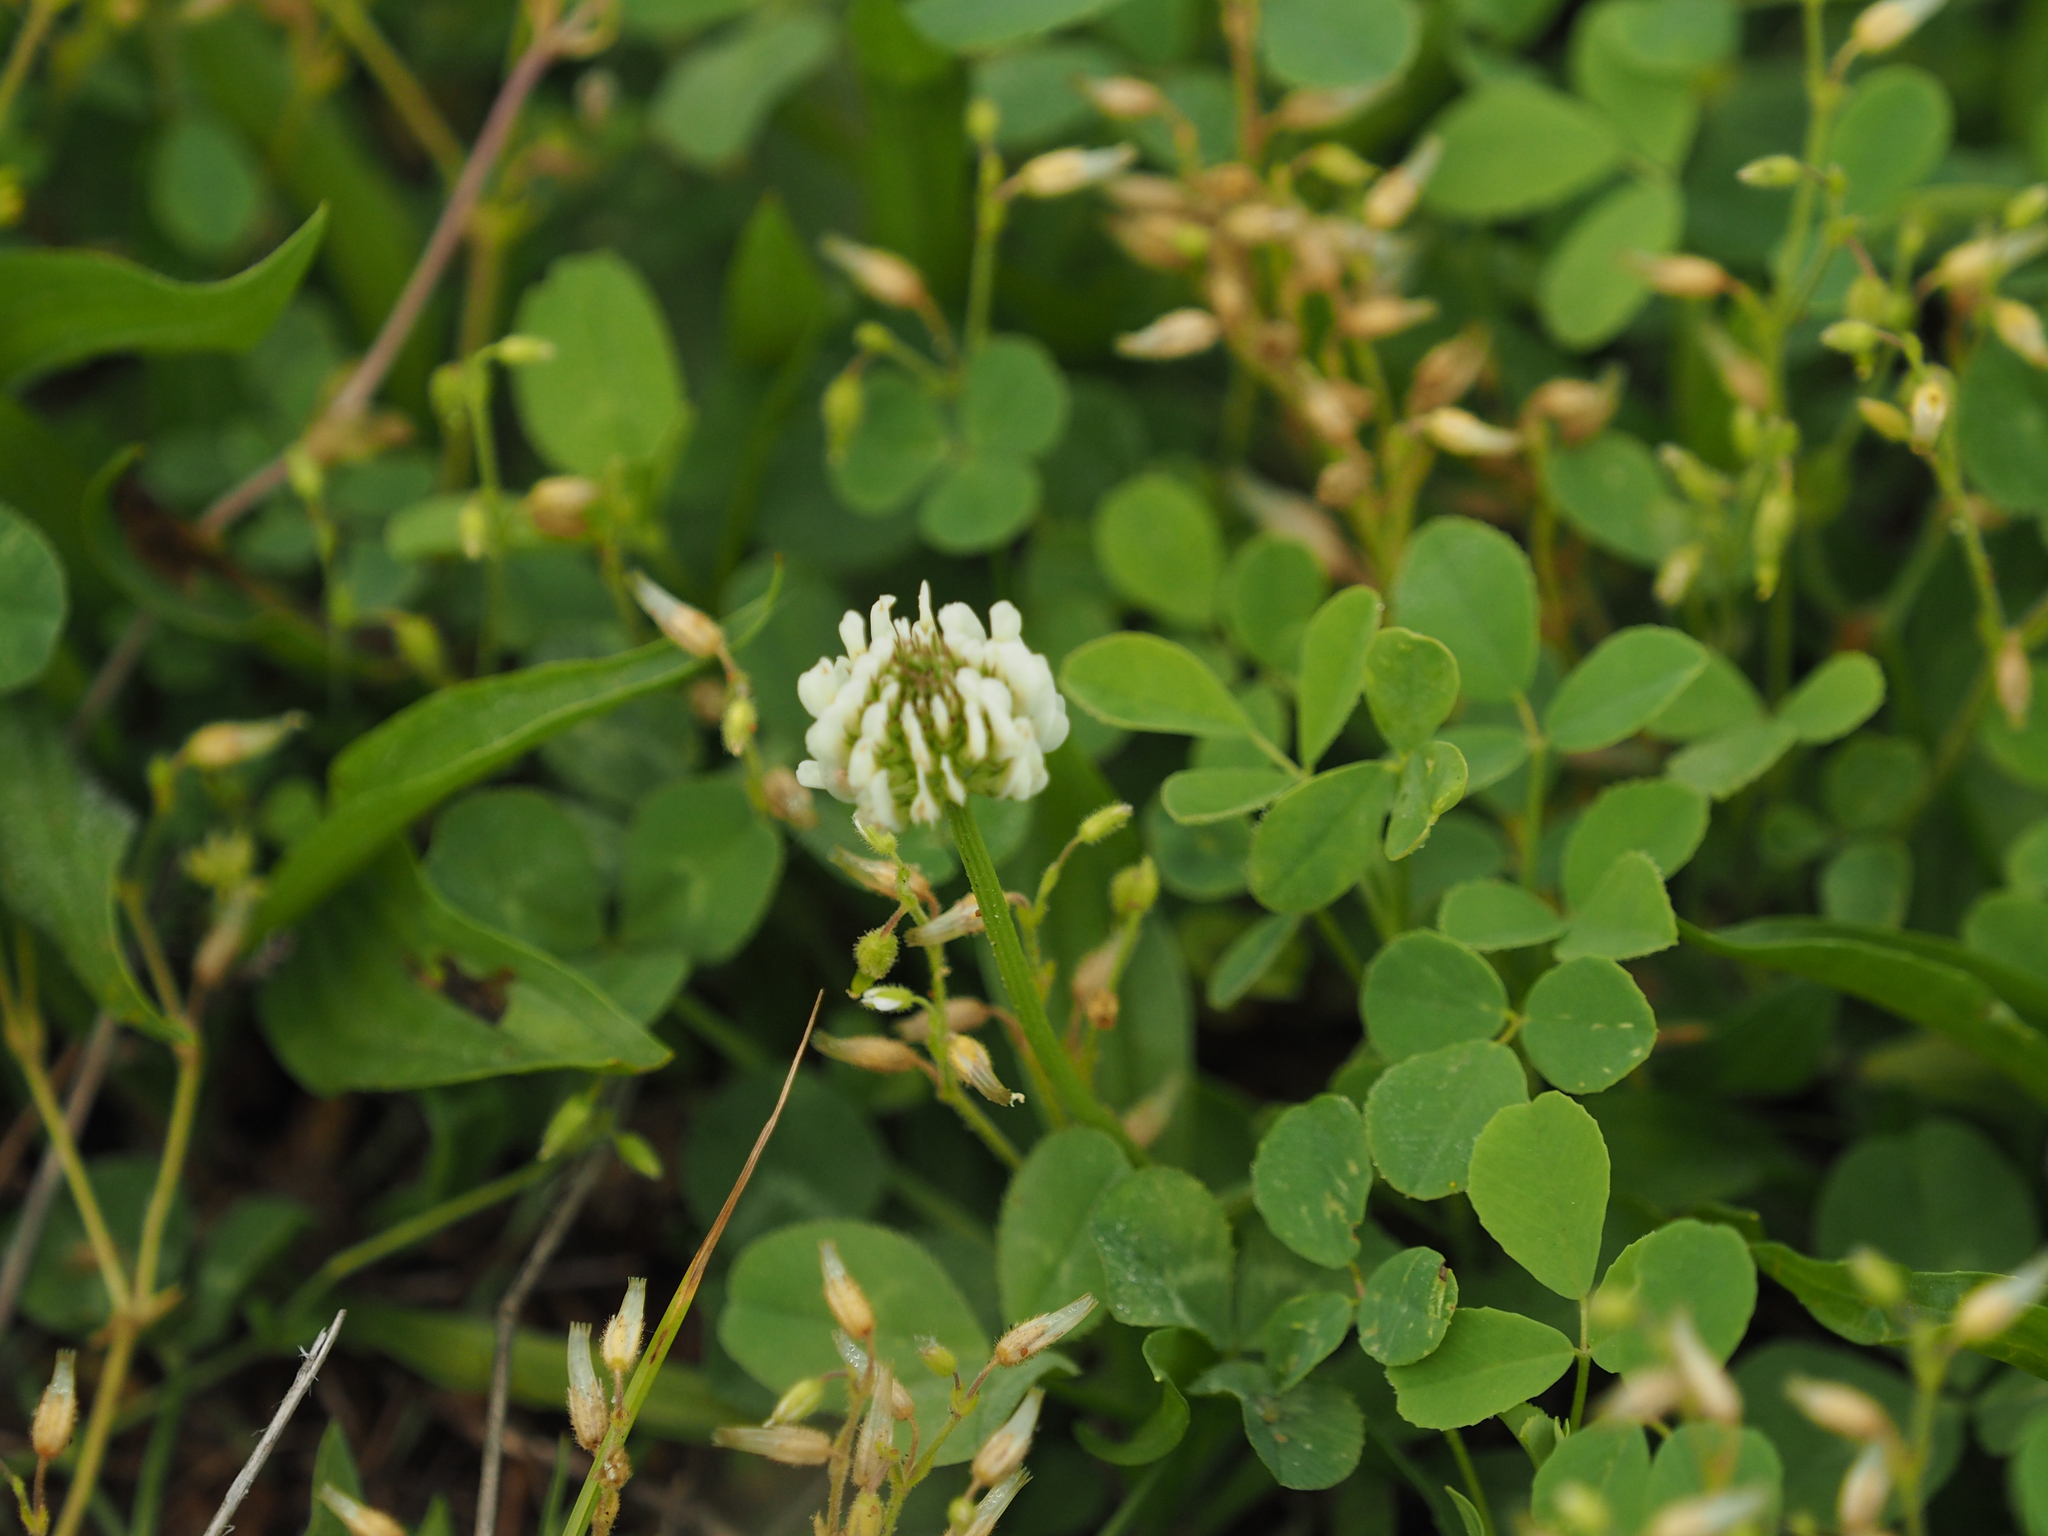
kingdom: Plantae
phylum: Tracheophyta
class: Magnoliopsida
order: Fabales
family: Fabaceae
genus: Trifolium
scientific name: Trifolium repens
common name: White clover
